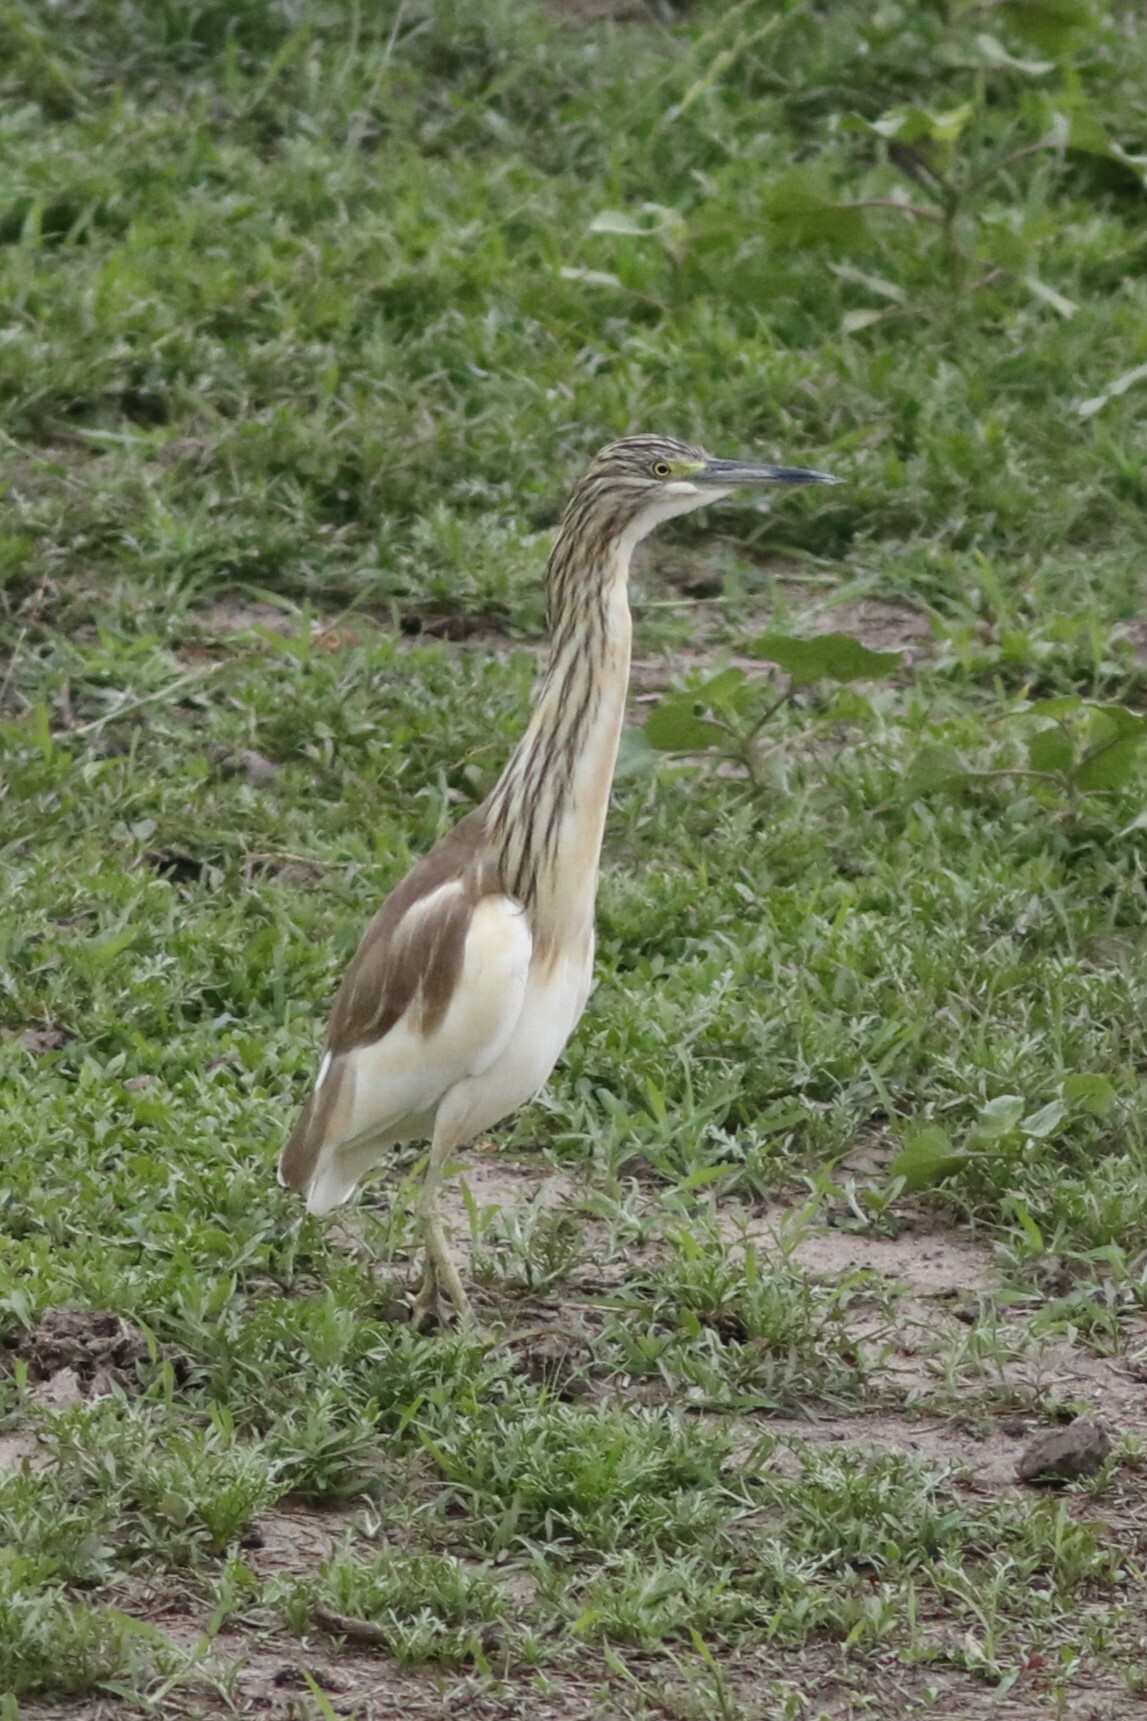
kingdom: Animalia
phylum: Chordata
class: Aves
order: Pelecaniformes
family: Ardeidae
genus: Ardeola
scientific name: Ardeola ralloides
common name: Squacco heron
